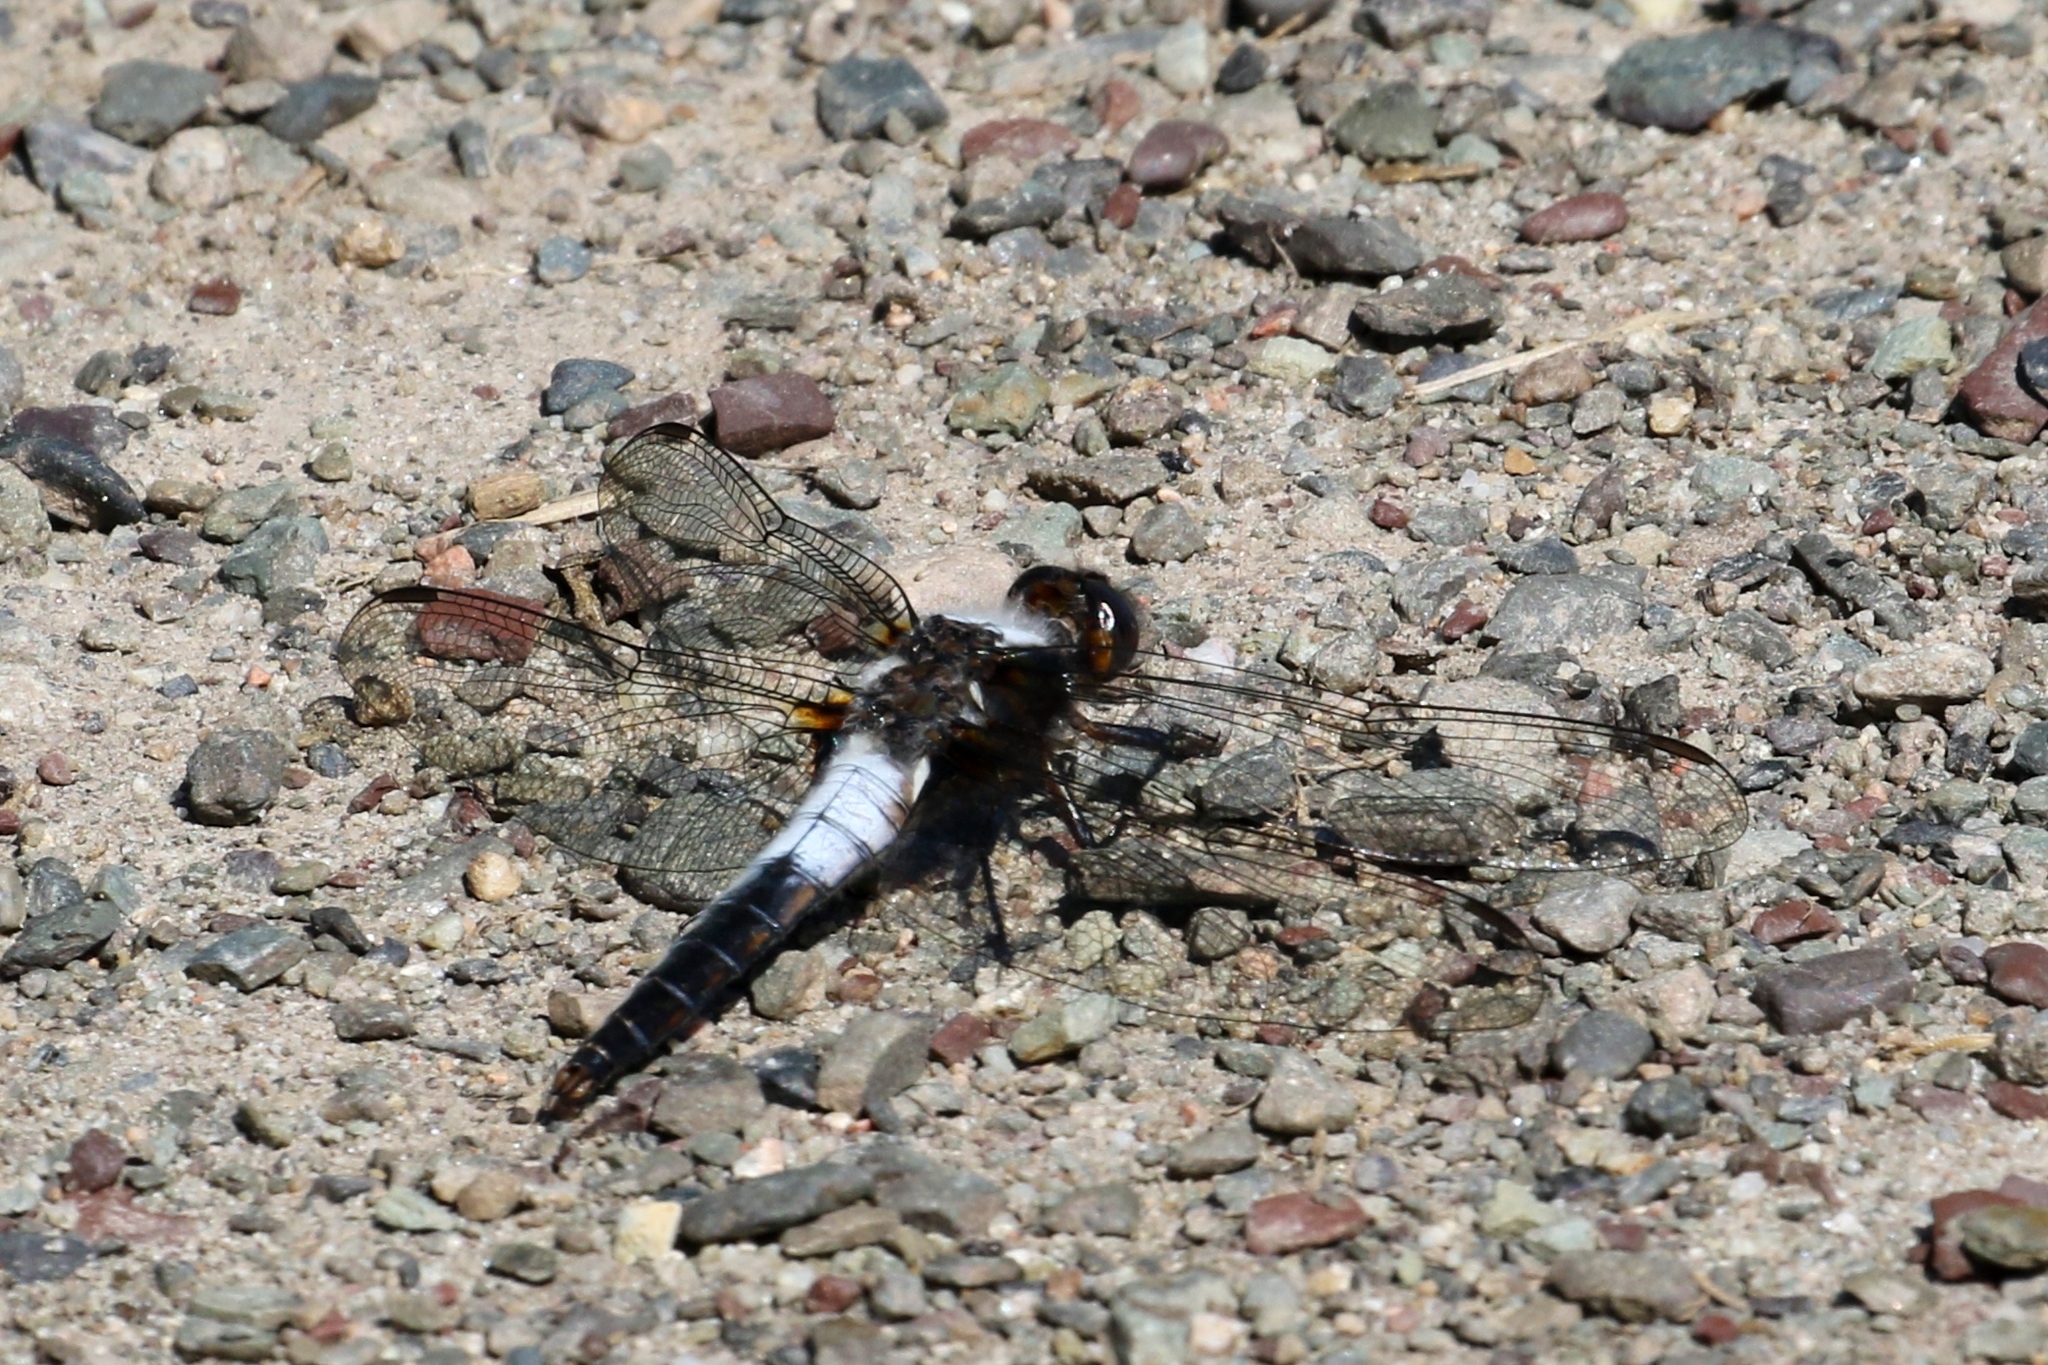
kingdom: Animalia
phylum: Arthropoda
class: Insecta
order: Odonata
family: Libellulidae
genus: Ladona
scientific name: Ladona julia
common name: Chalk-fronted corporal
